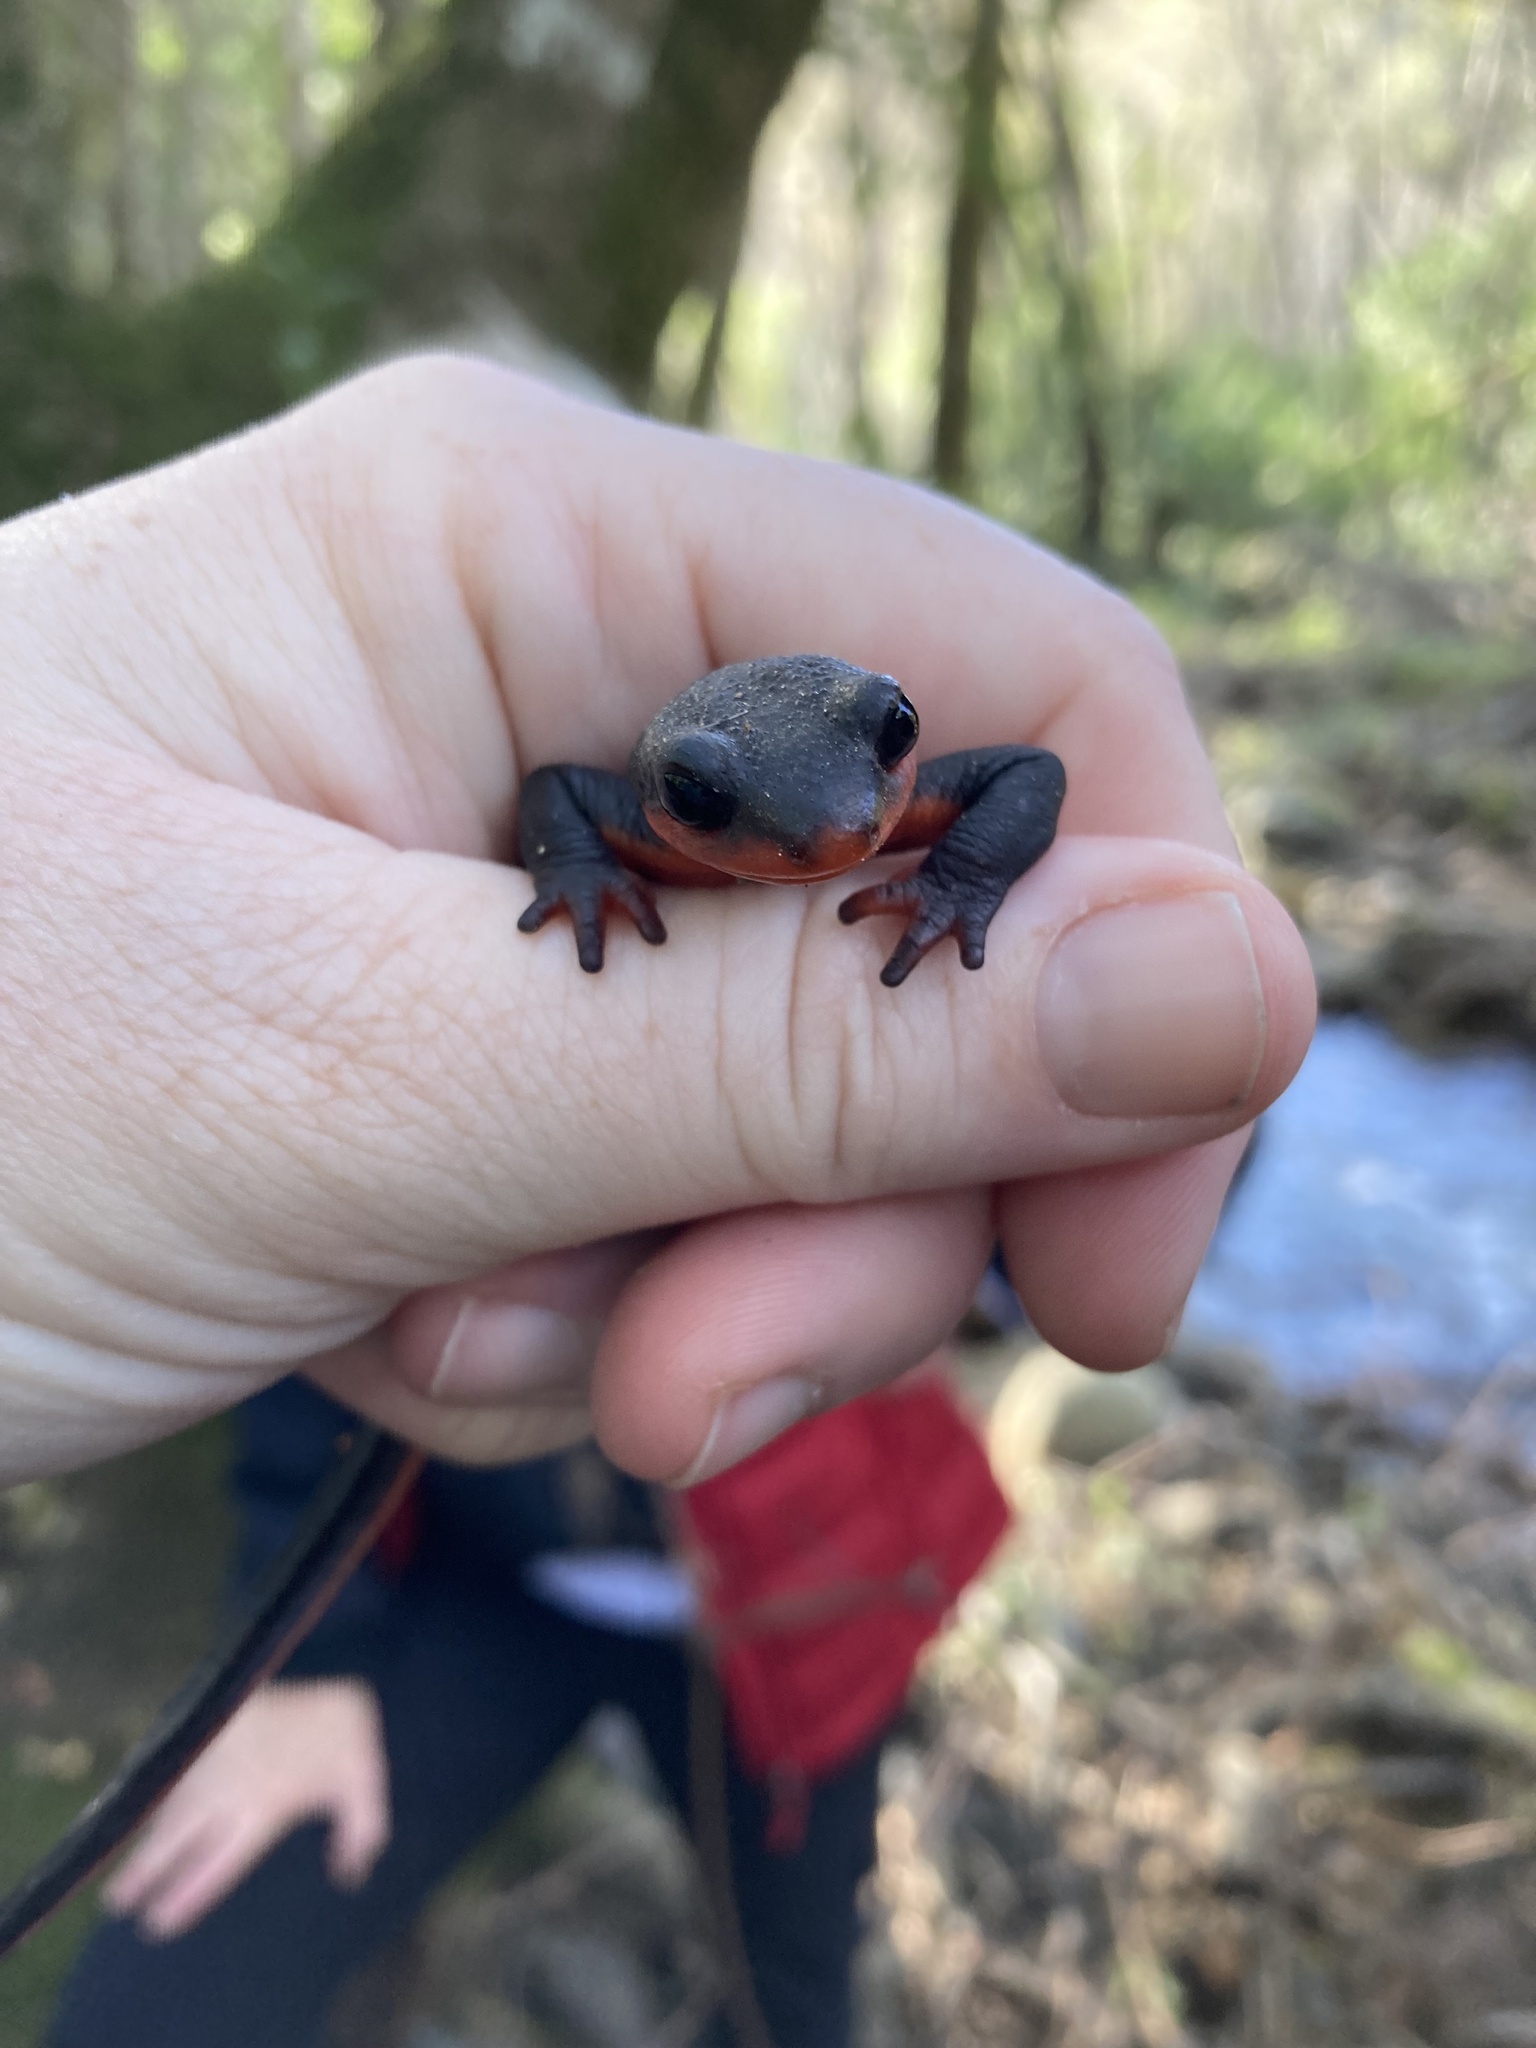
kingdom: Animalia
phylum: Chordata
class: Amphibia
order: Caudata
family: Salamandridae
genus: Taricha
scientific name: Taricha rivularis
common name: Red-bellied newt
